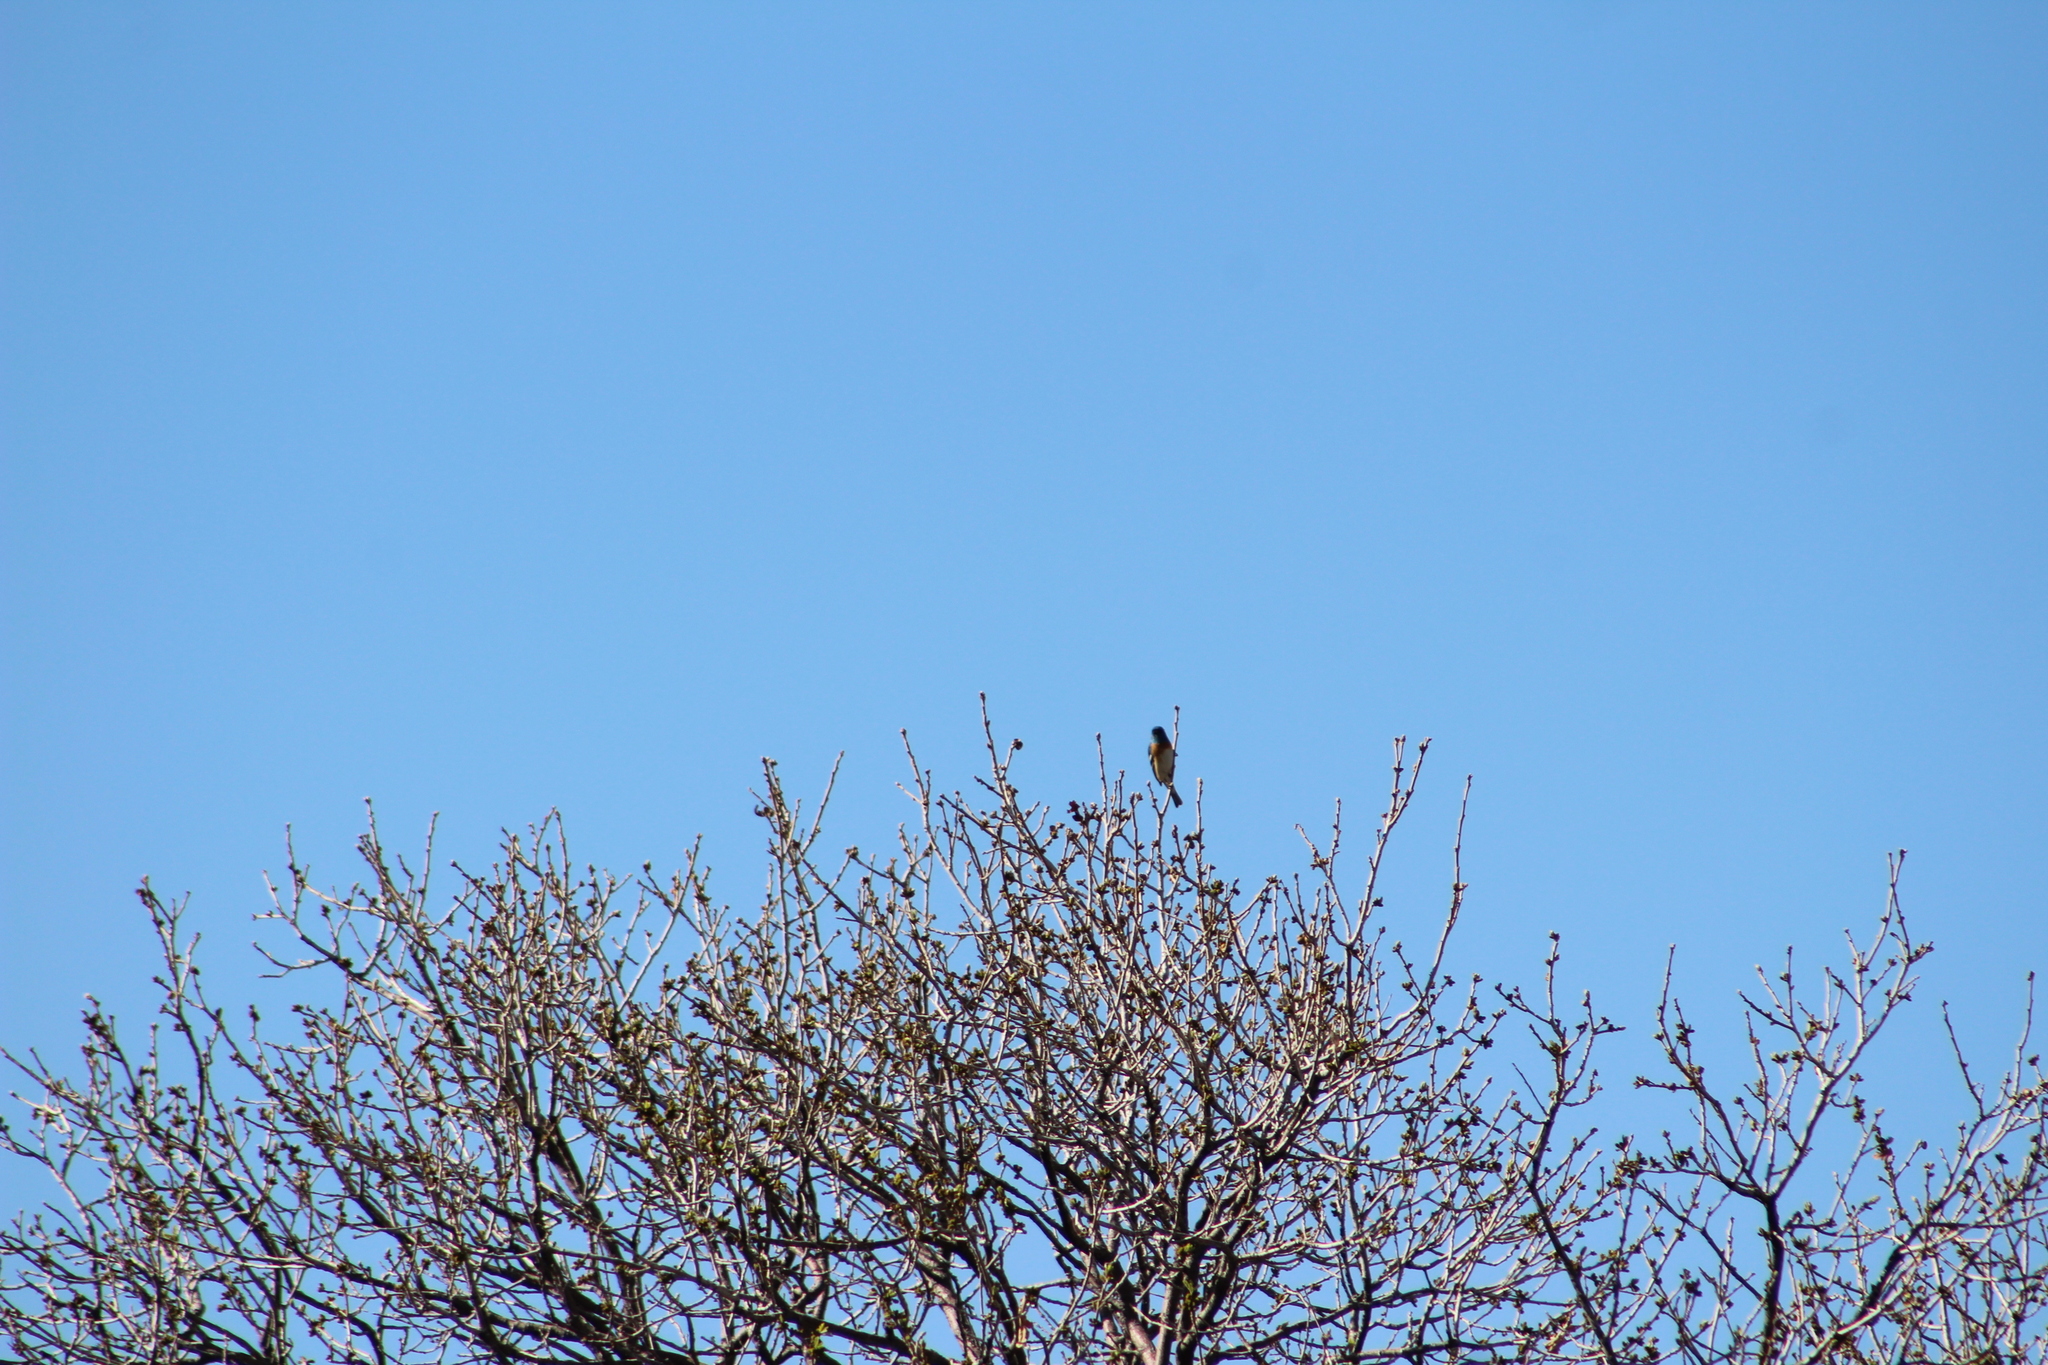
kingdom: Animalia
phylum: Chordata
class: Aves
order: Passeriformes
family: Cardinalidae
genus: Passerina
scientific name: Passerina amoena
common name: Lazuli bunting
